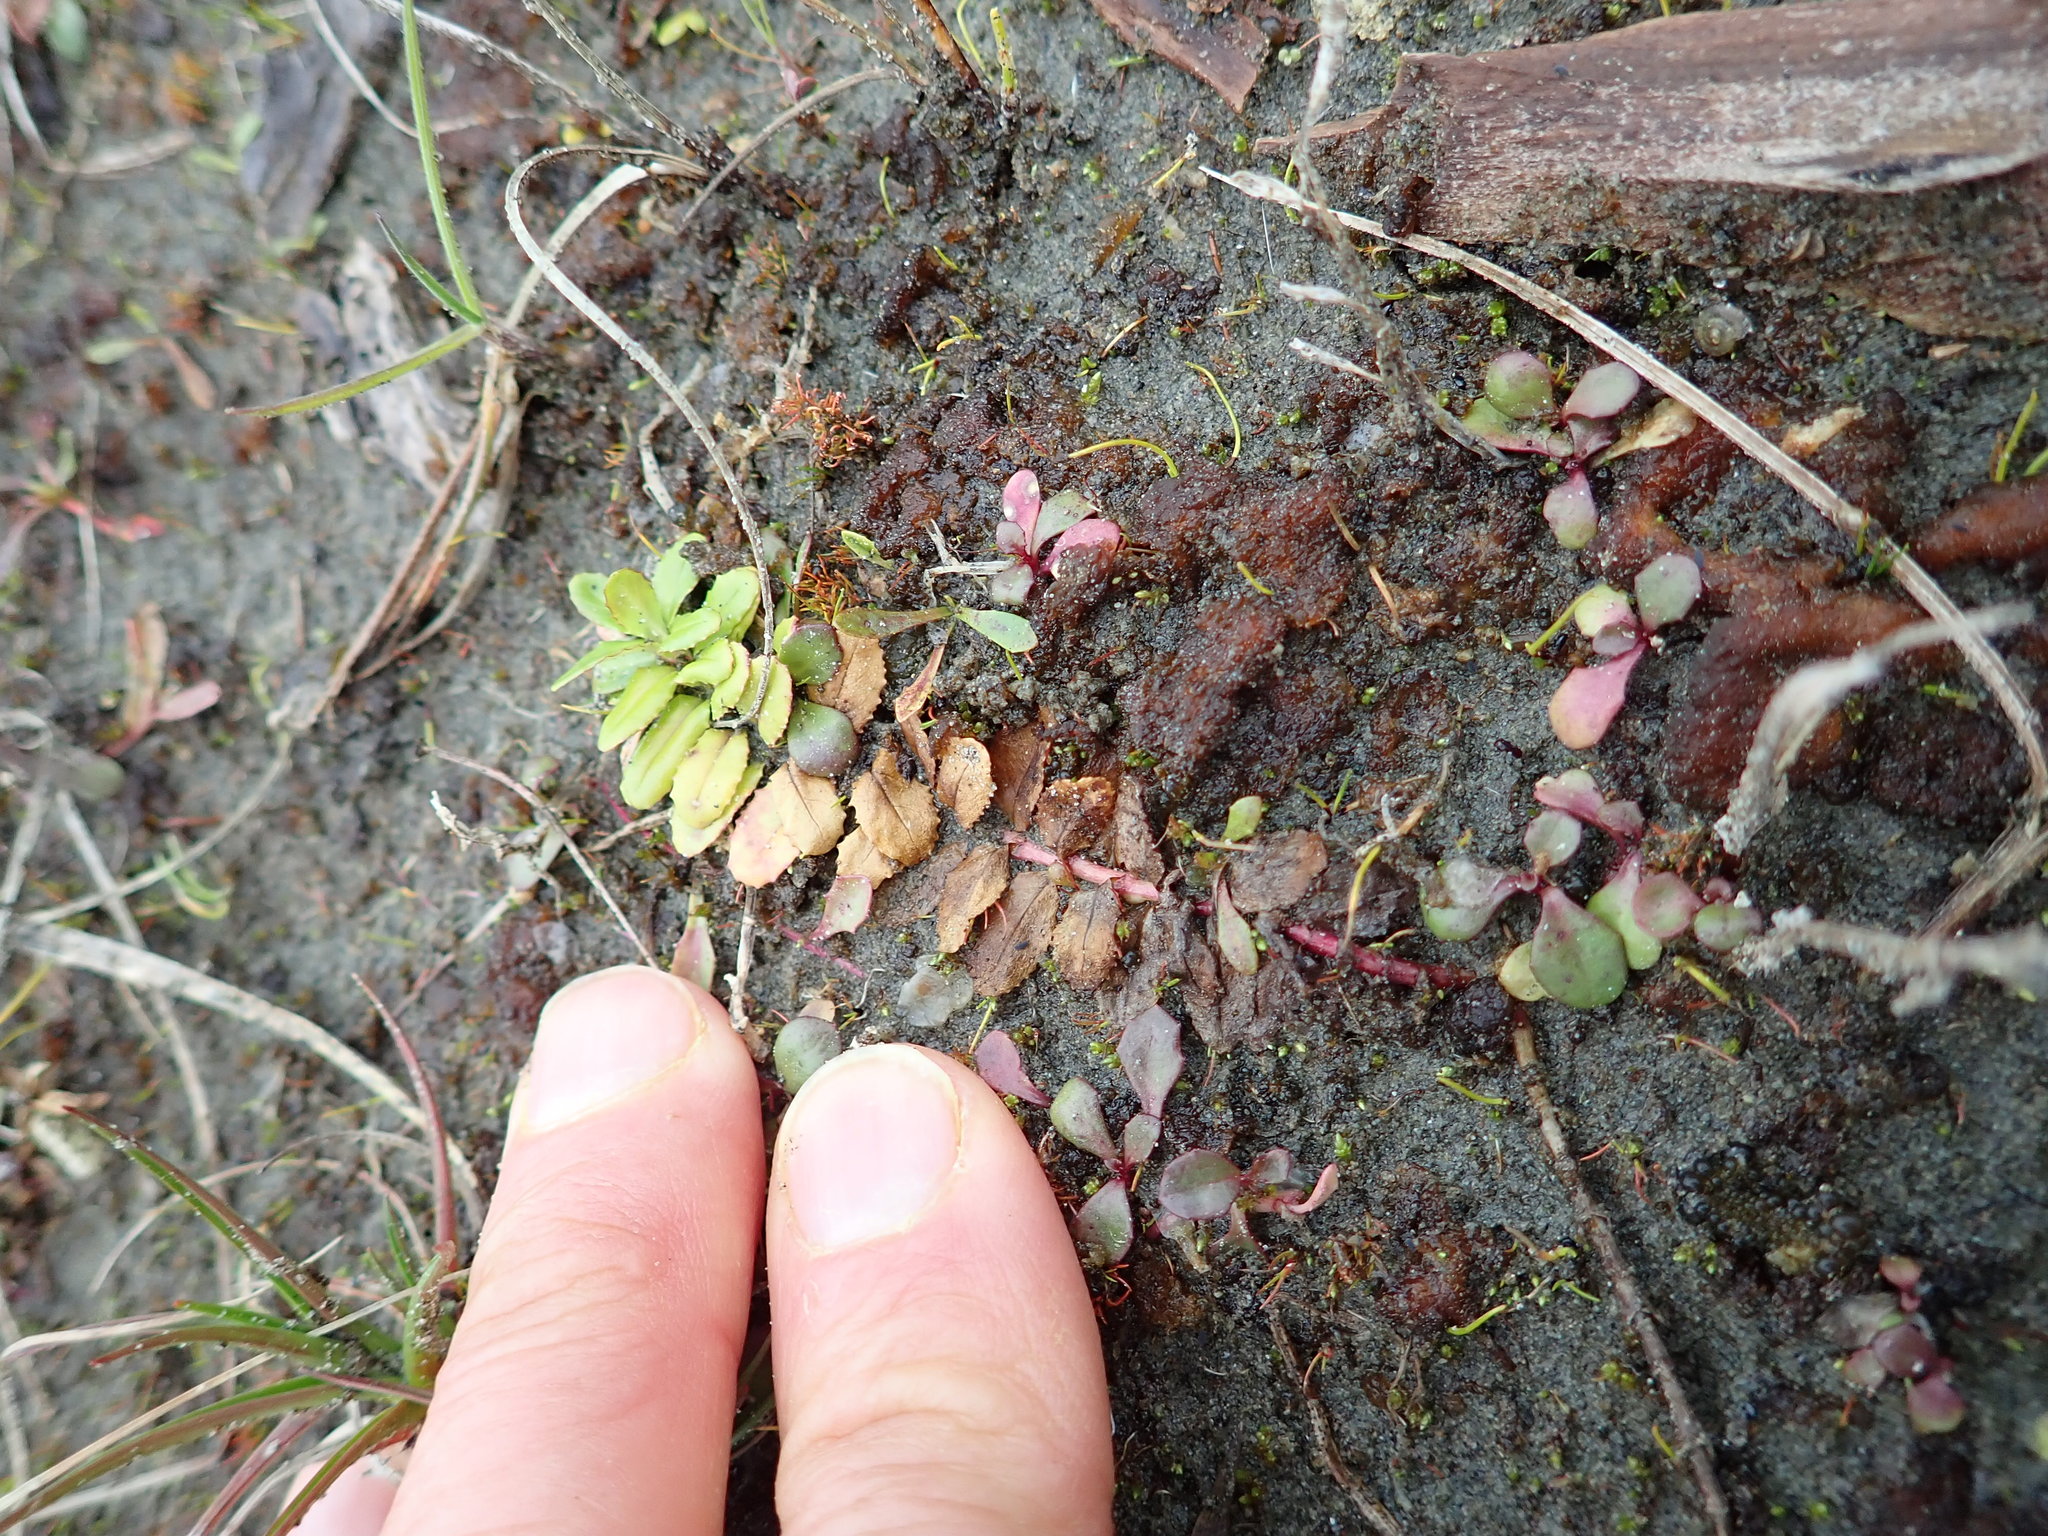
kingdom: Plantae
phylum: Tracheophyta
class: Magnoliopsida
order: Myrtales
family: Onagraceae
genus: Epilobium
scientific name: Epilobium billardiereanum
